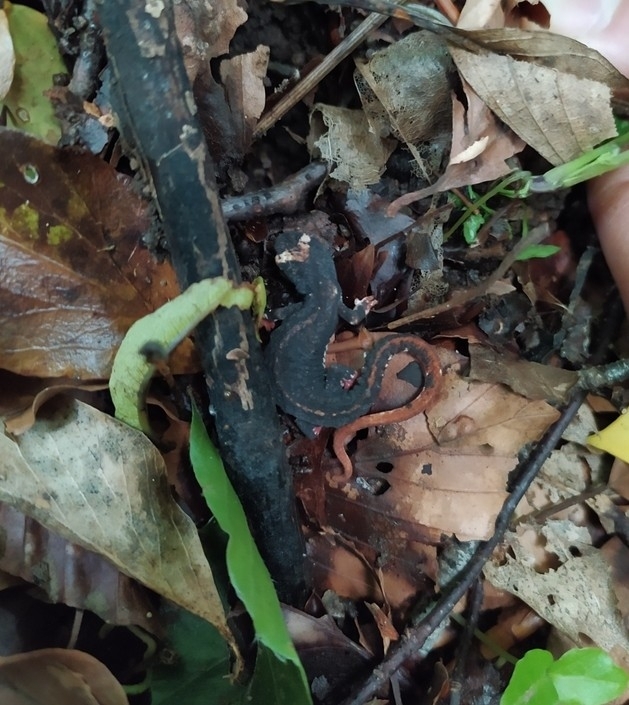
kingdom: Animalia
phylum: Chordata
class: Amphibia
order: Caudata
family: Salamandridae
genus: Salamandrina
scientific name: Salamandrina terdigitata
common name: Southern spectacled salamander
